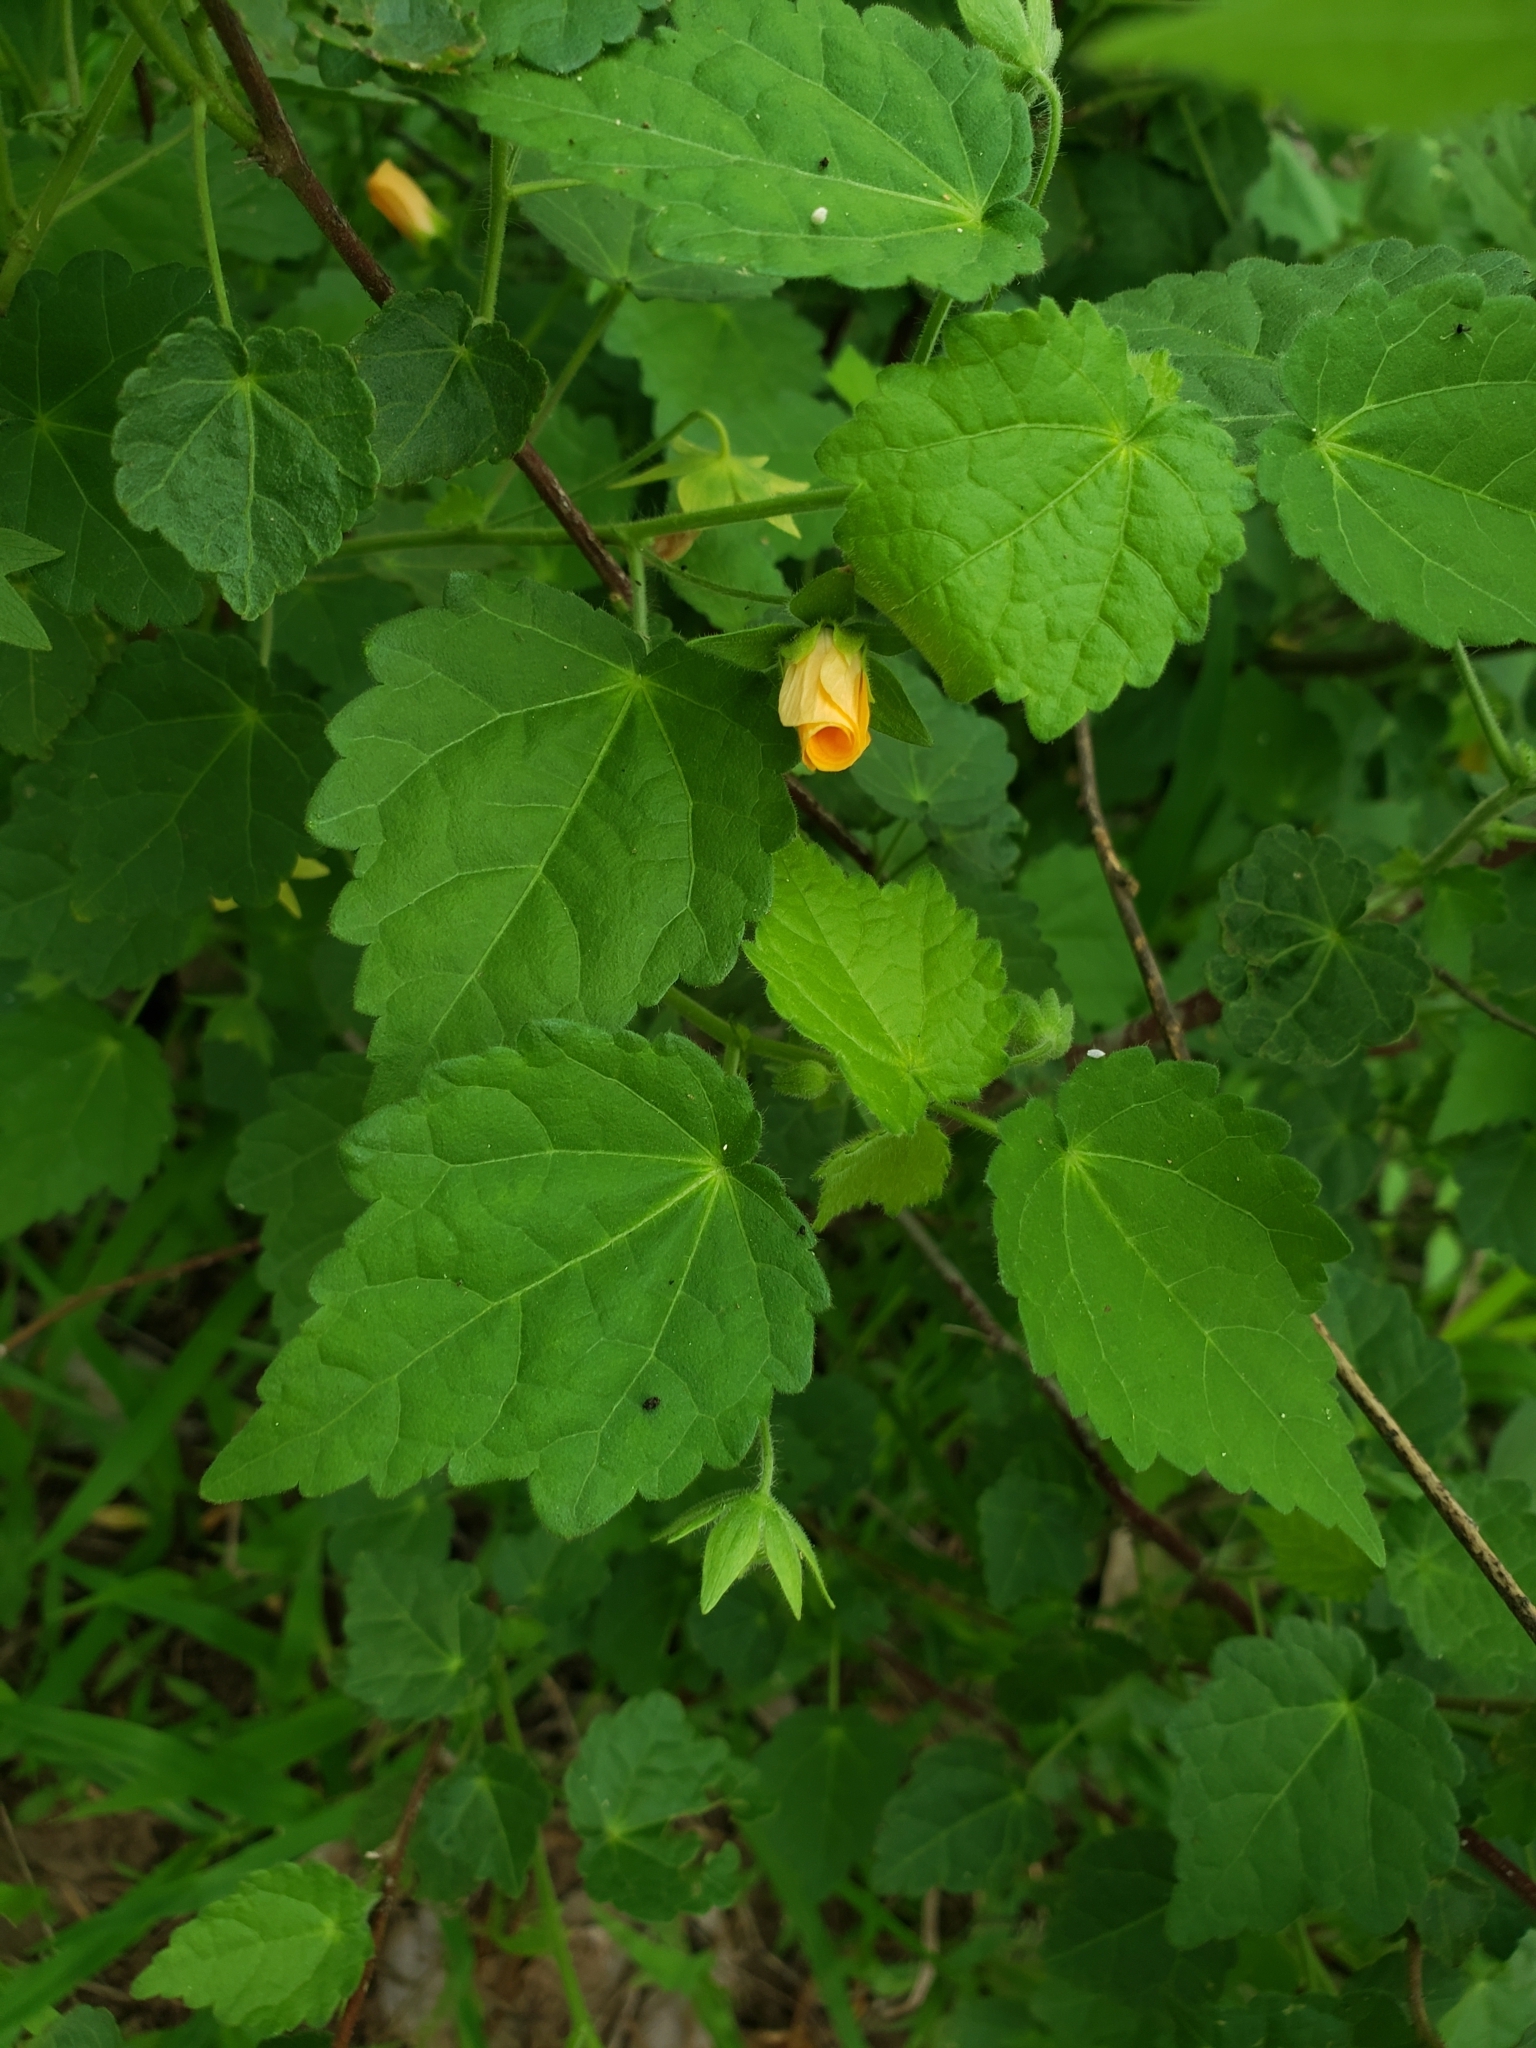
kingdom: Plantae
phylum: Tracheophyta
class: Magnoliopsida
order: Malvales
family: Malvaceae
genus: Pavonia
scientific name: Pavonia burchellii
